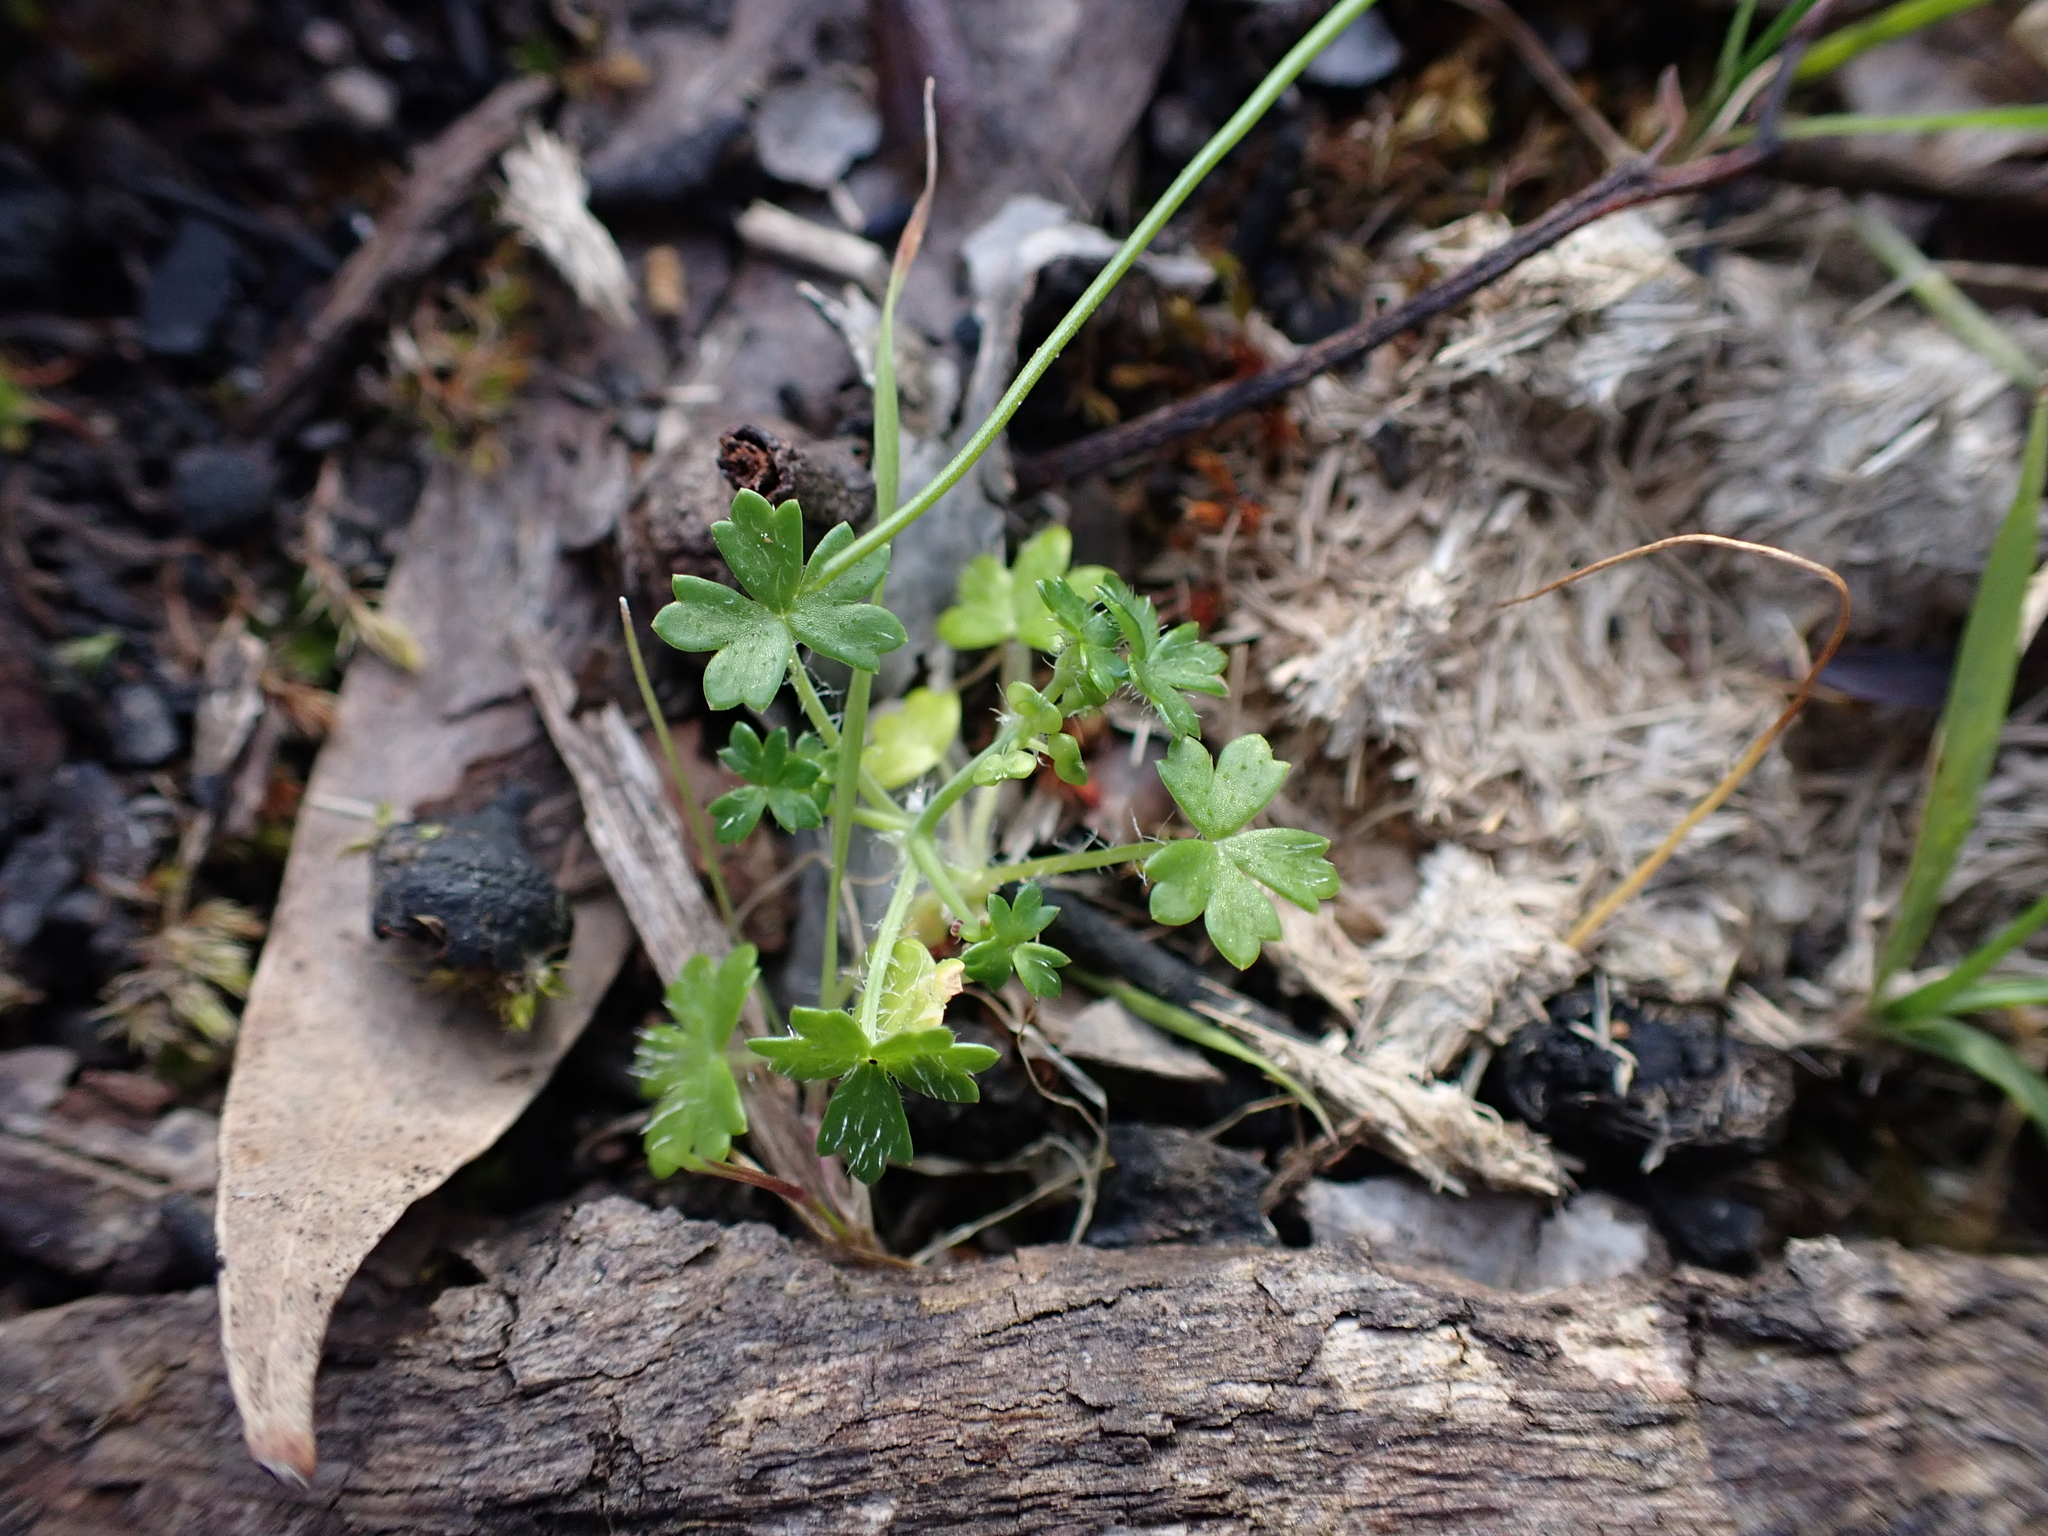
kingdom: Plantae
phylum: Tracheophyta
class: Magnoliopsida
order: Apiales
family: Araliaceae
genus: Hydrocotyle
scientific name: Hydrocotyle foveolata
